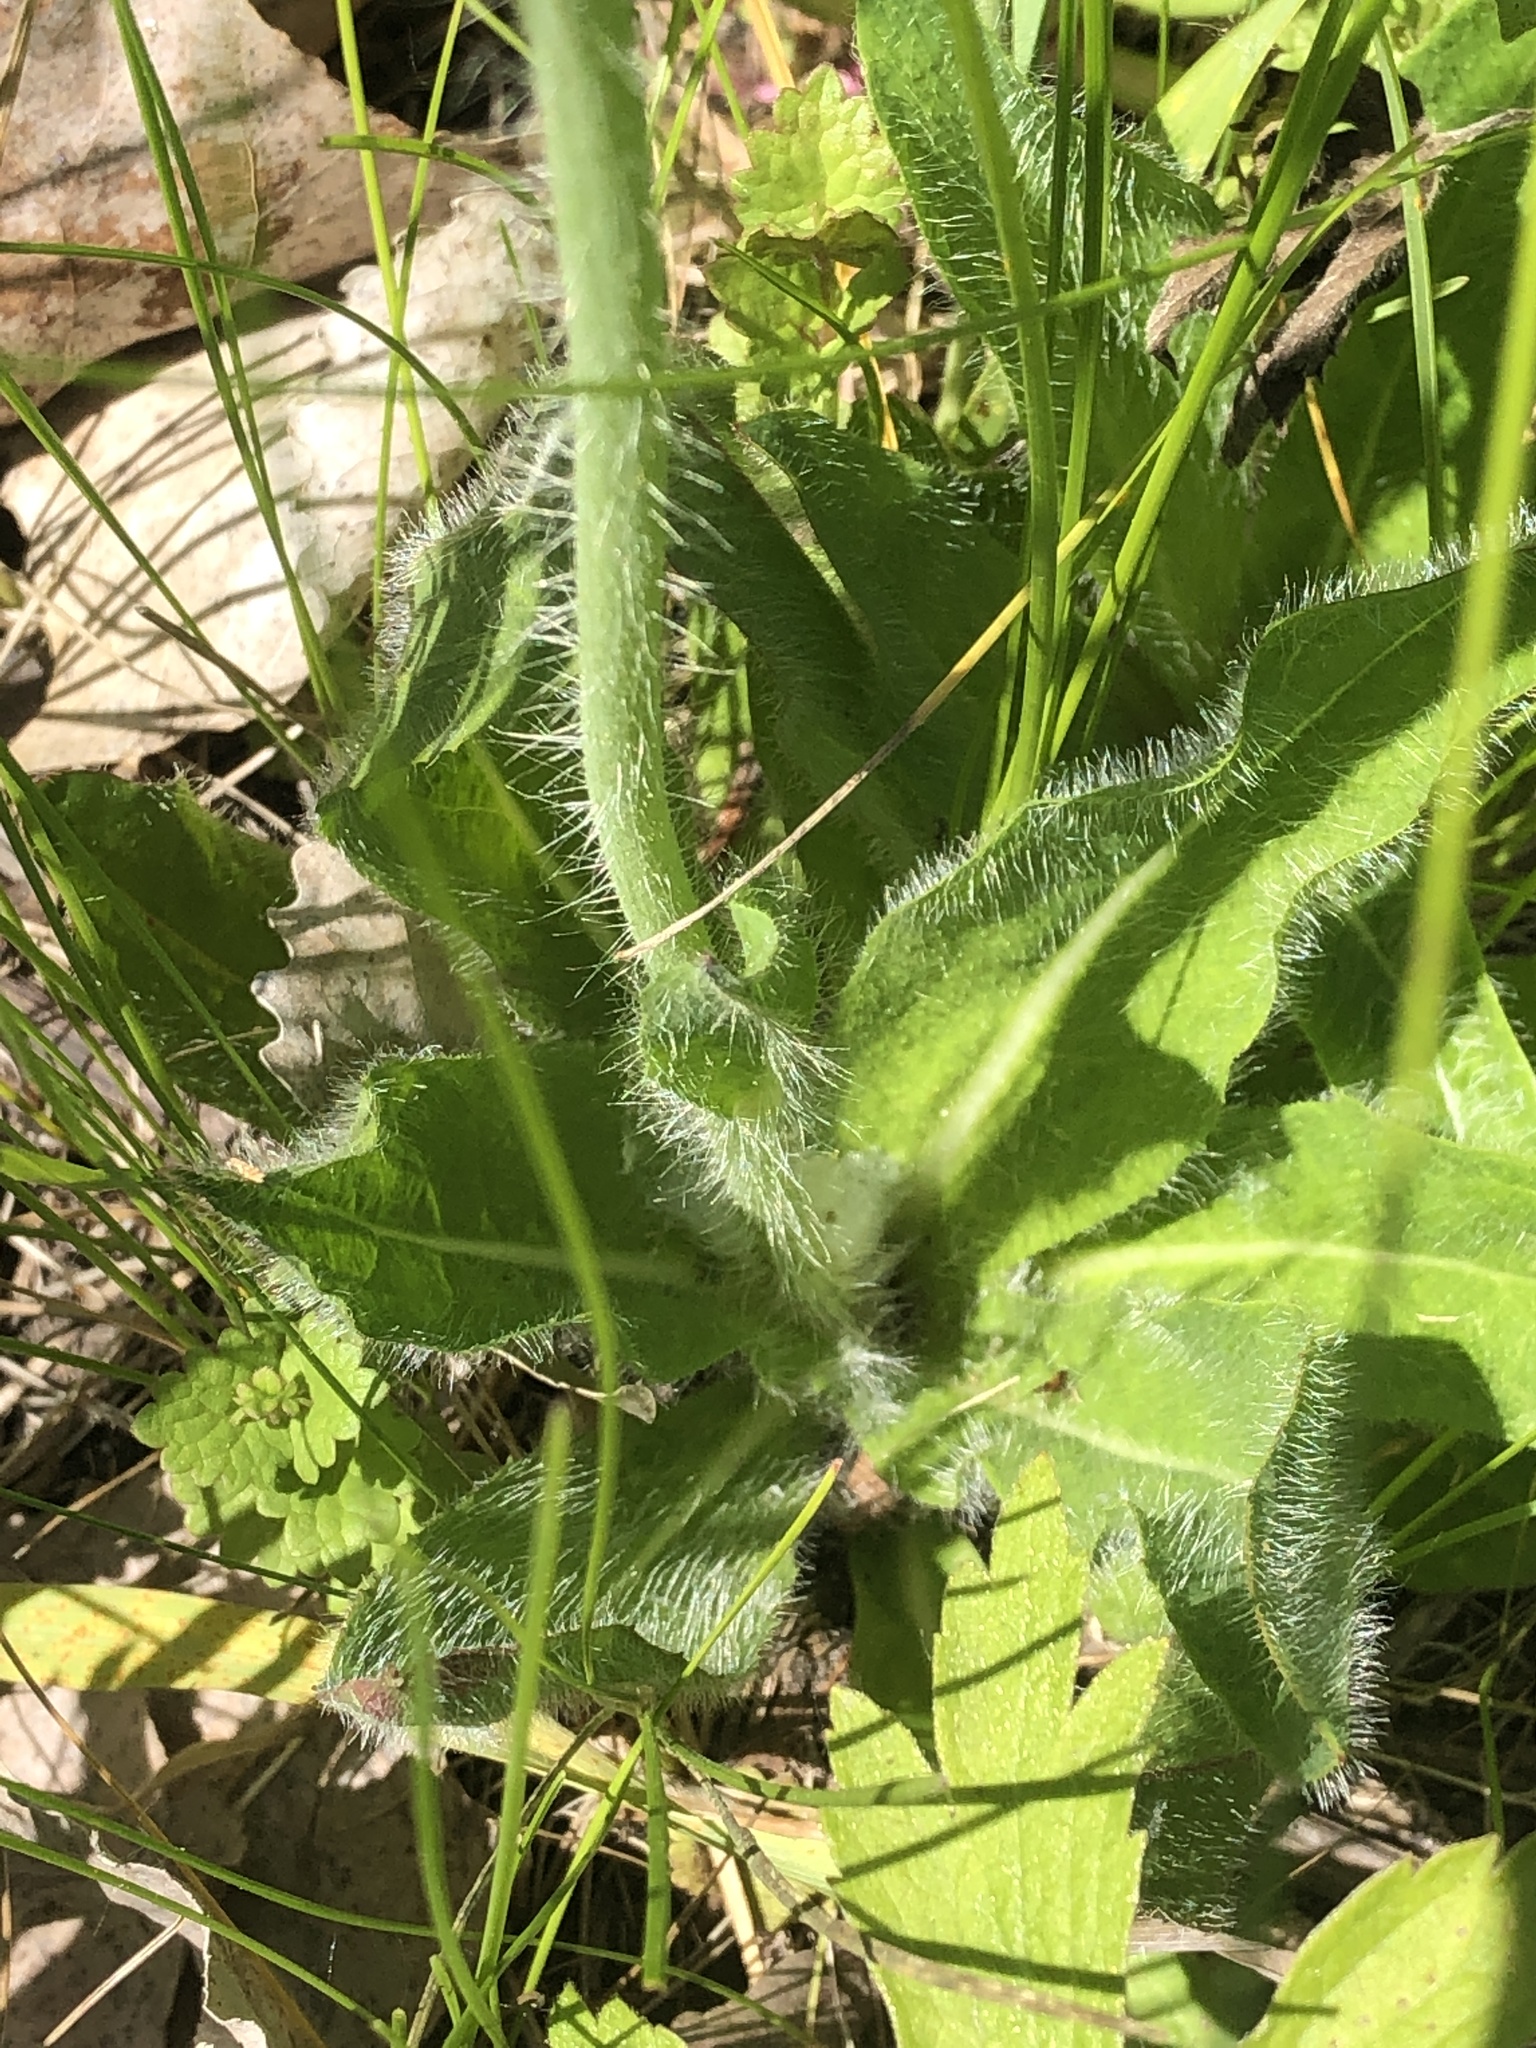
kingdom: Plantae
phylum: Tracheophyta
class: Magnoliopsida
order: Asterales
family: Asteraceae
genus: Pilosella
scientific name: Pilosella aurantiaca
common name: Fox-and-cubs
